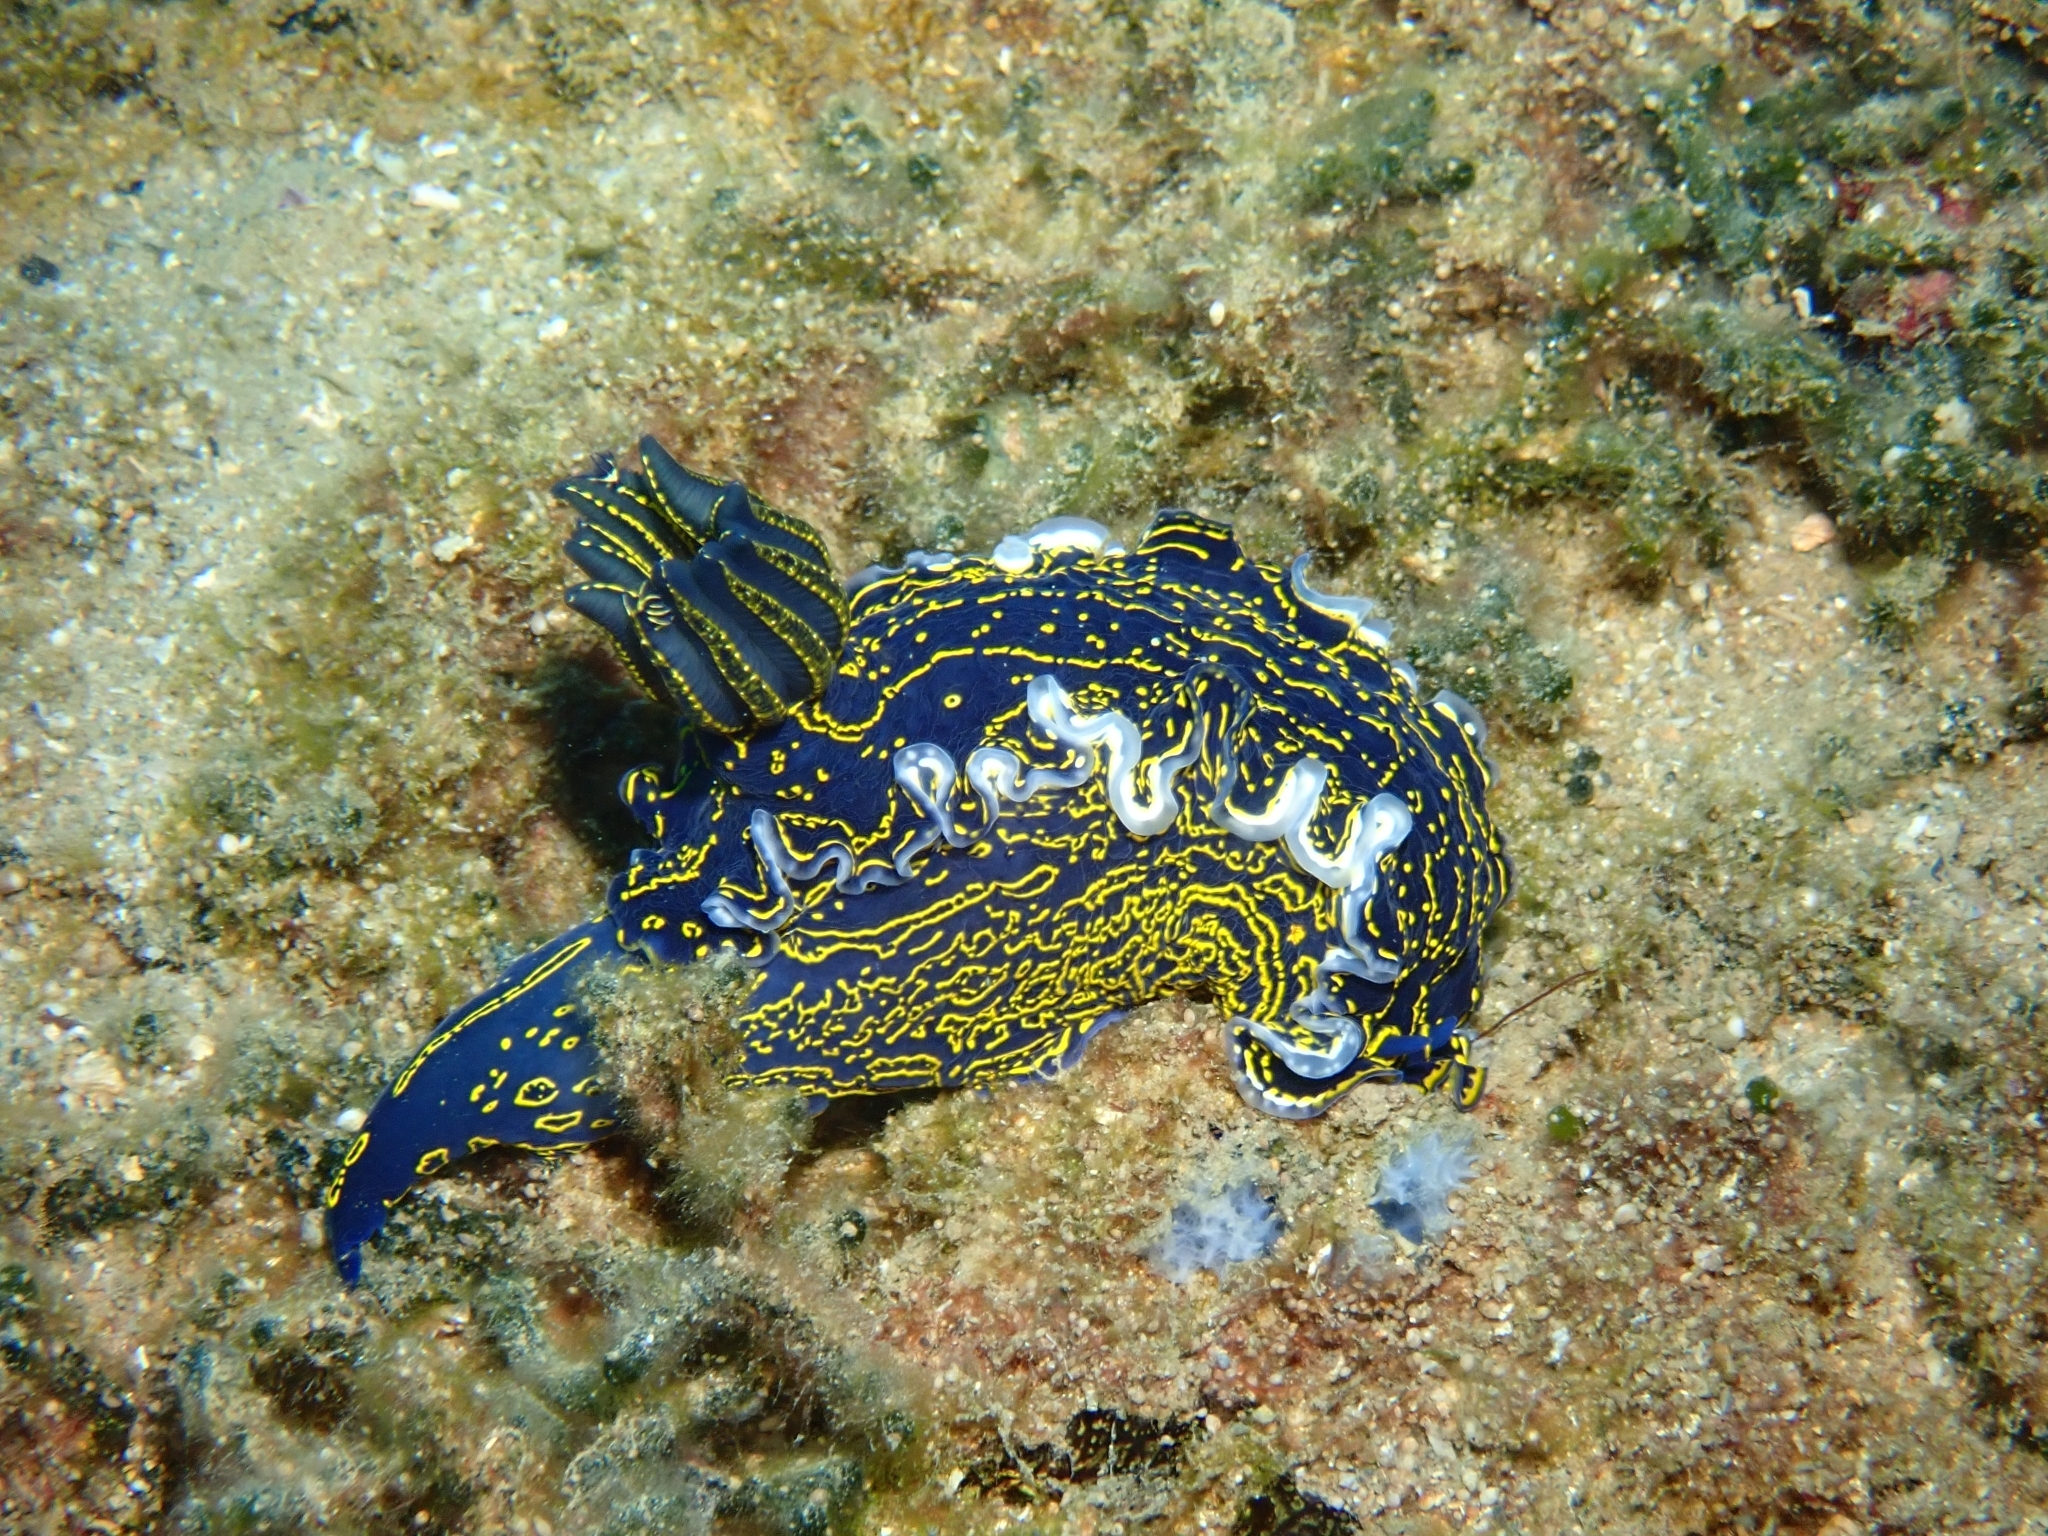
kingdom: Animalia
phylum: Mollusca
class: Gastropoda
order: Nudibranchia
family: Chromodorididae
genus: Felimare
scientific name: Felimare picta
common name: Giant doris
